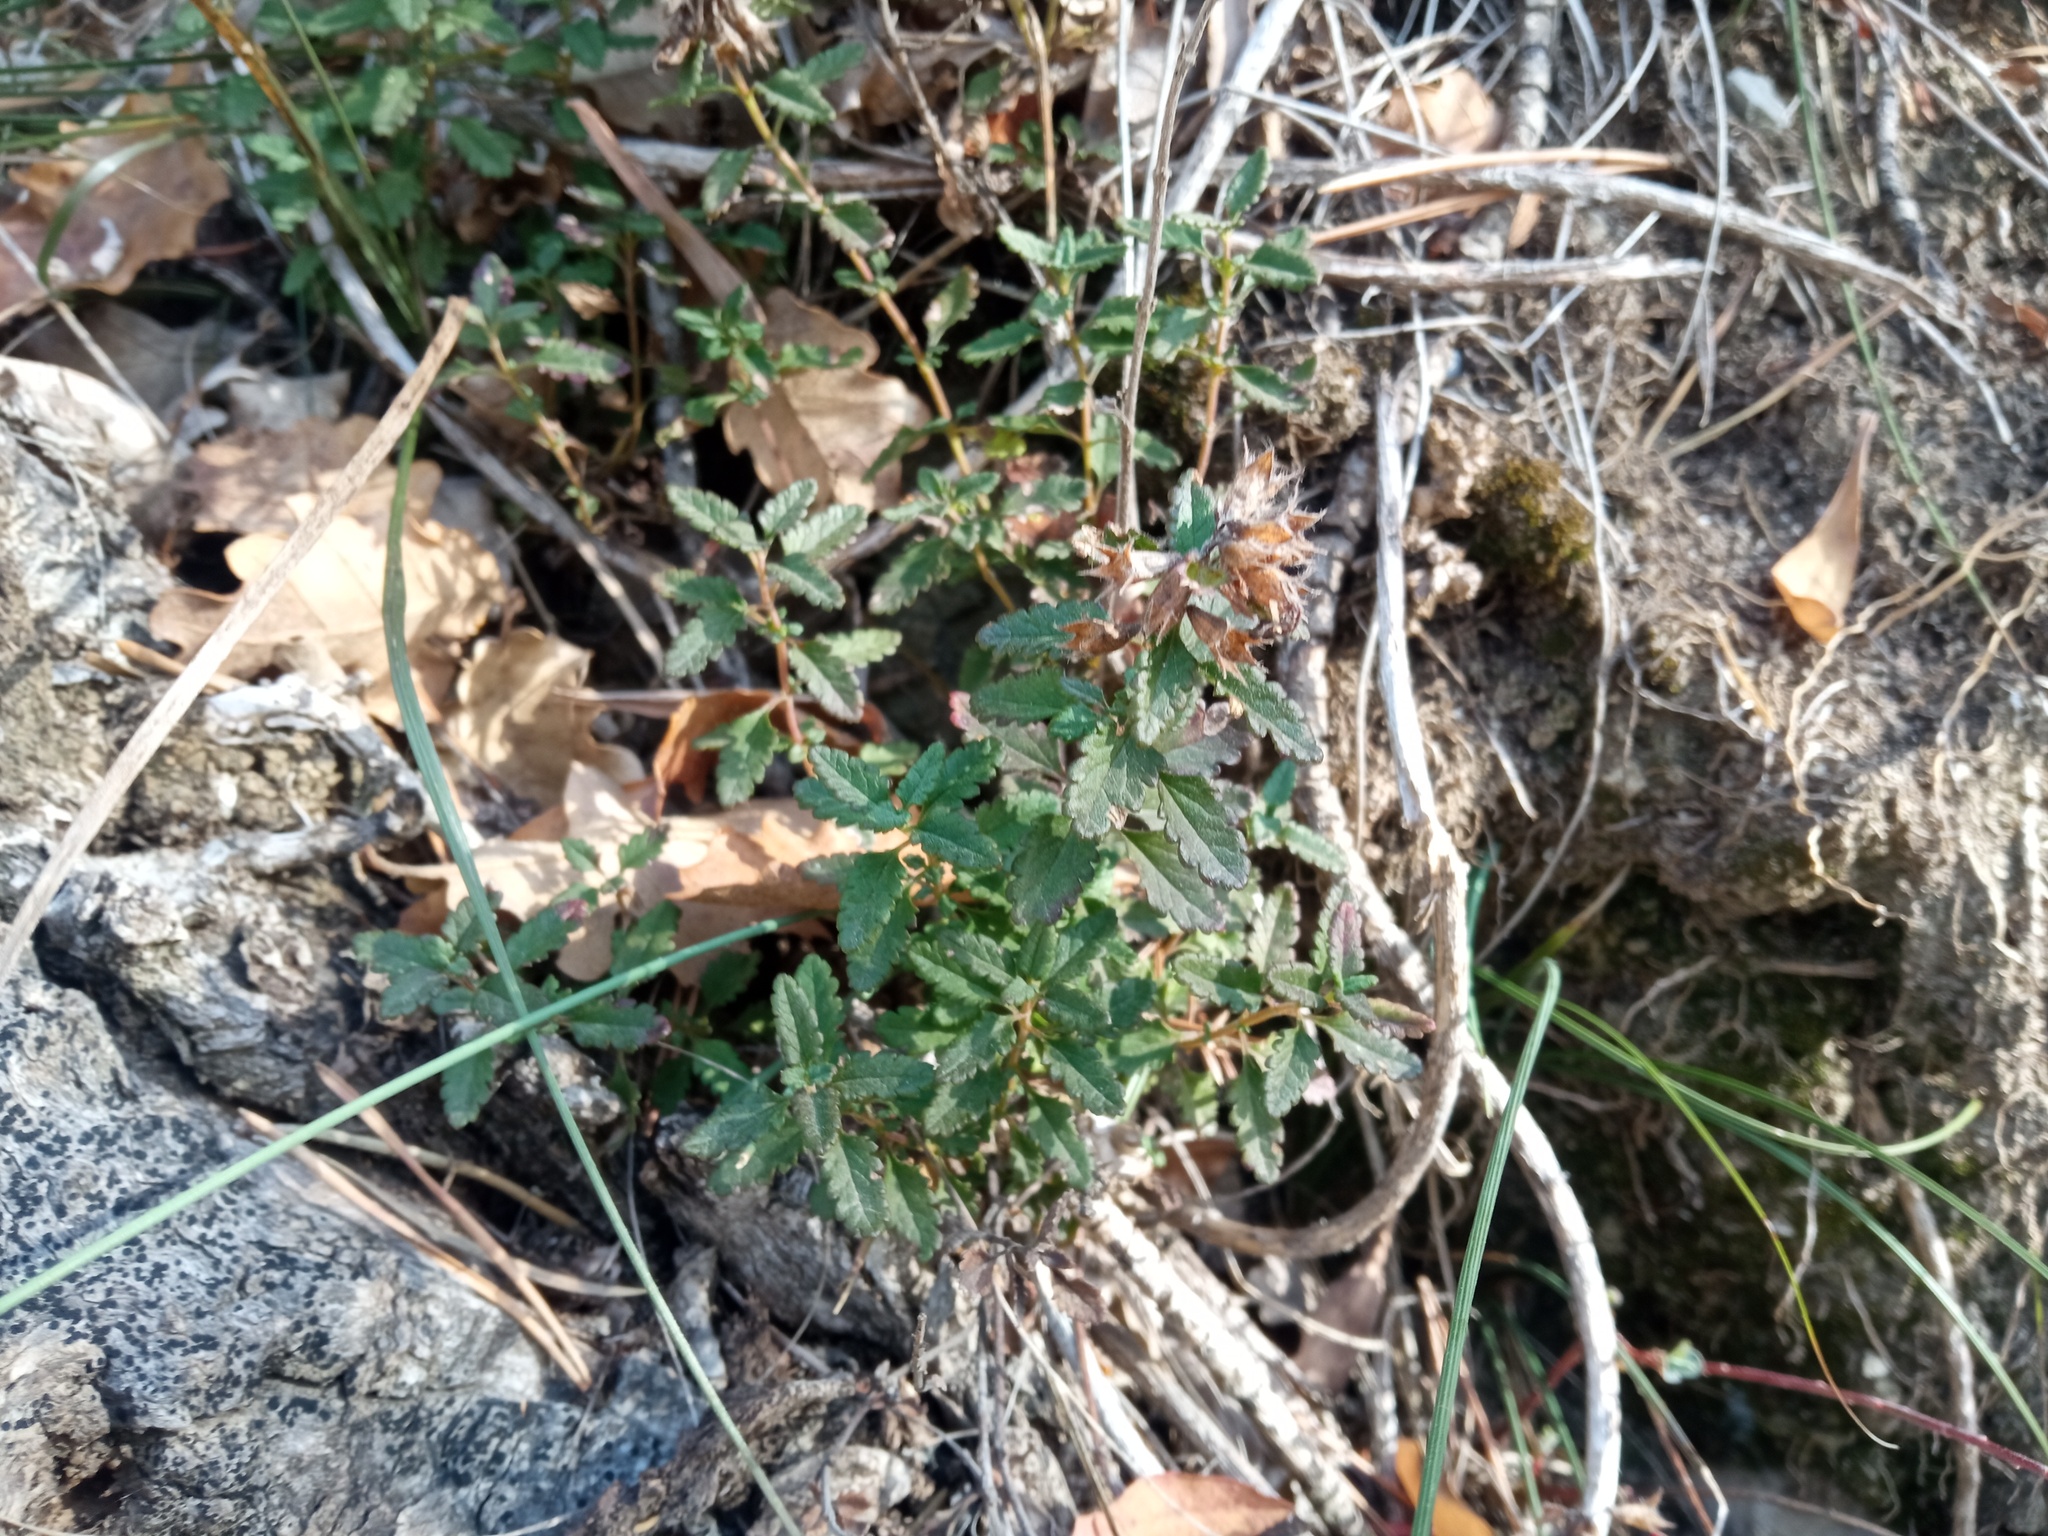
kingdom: Plantae
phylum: Tracheophyta
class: Magnoliopsida
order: Lamiales
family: Lamiaceae
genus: Teucrium
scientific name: Teucrium chamaedrys
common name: Wall germander
